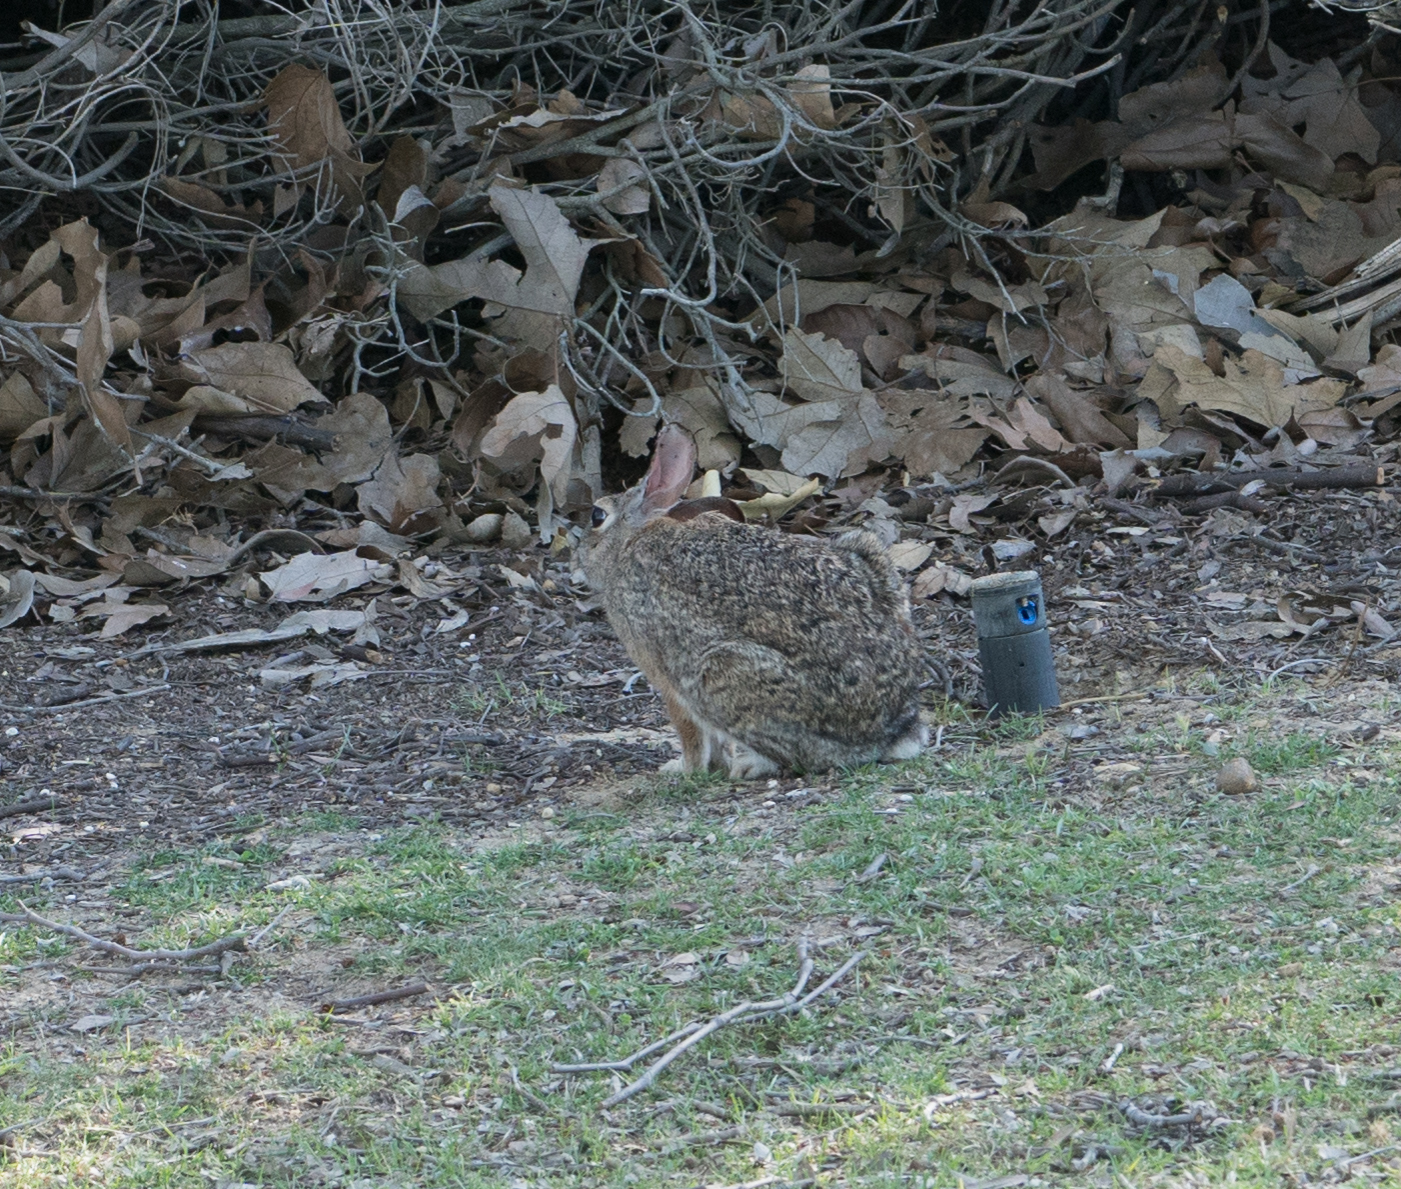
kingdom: Animalia
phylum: Chordata
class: Mammalia
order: Lagomorpha
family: Leporidae
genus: Sylvilagus
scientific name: Sylvilagus audubonii
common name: Desert cottontail
